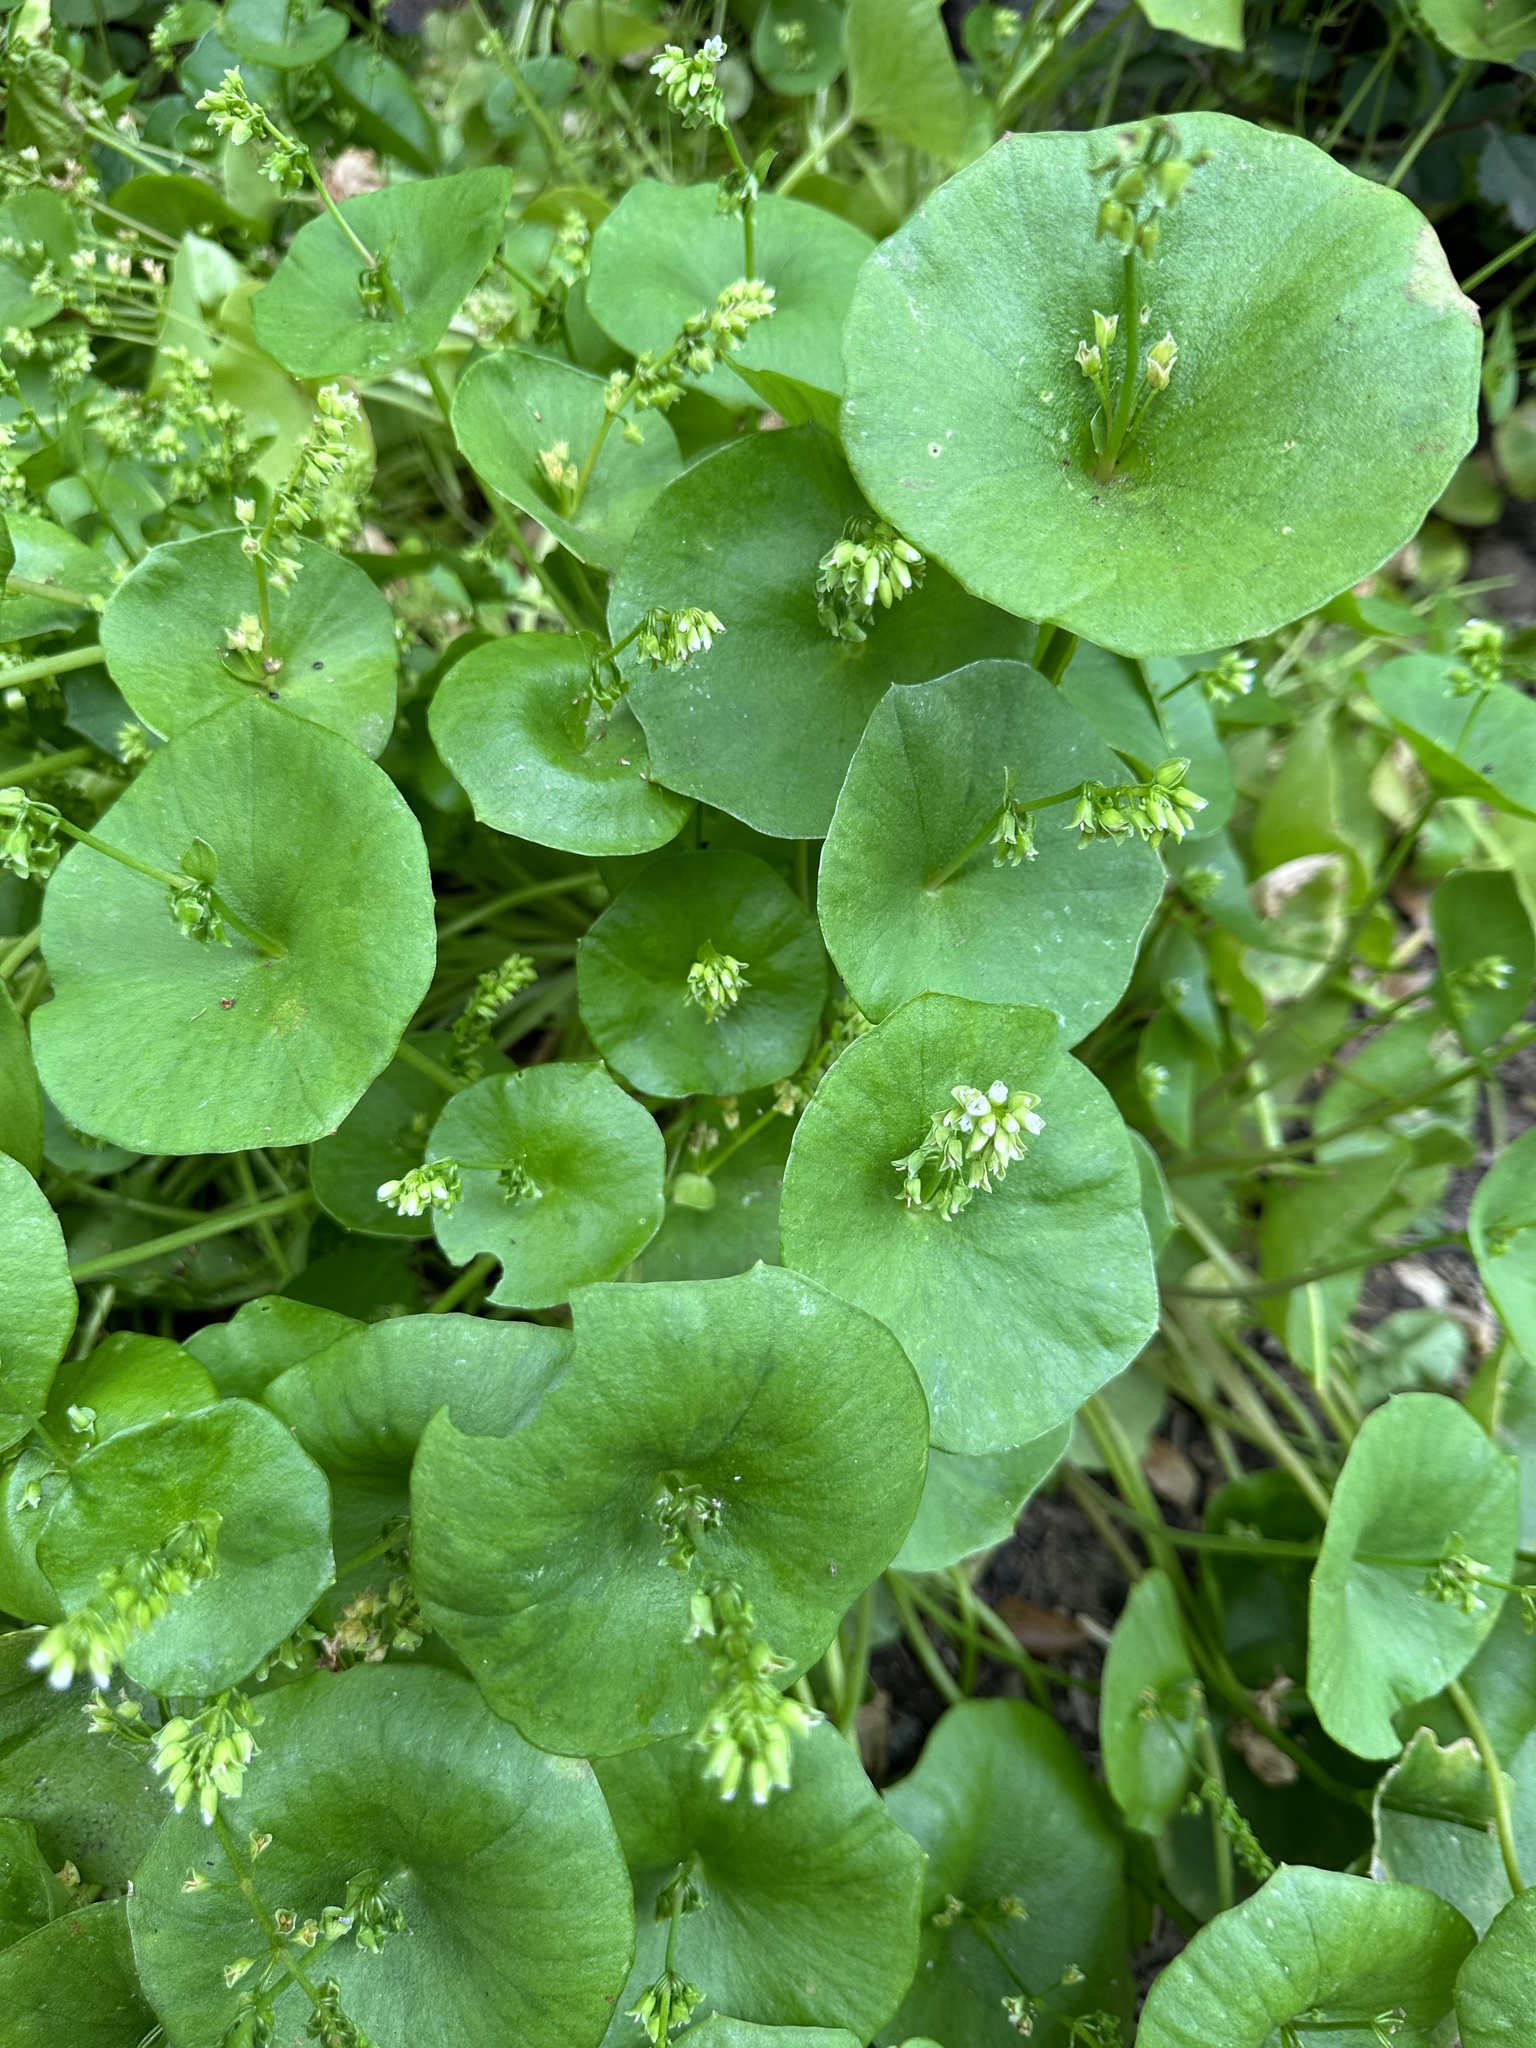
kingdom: Plantae
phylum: Tracheophyta
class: Magnoliopsida
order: Caryophyllales
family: Montiaceae
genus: Claytonia
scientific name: Claytonia perfoliata
